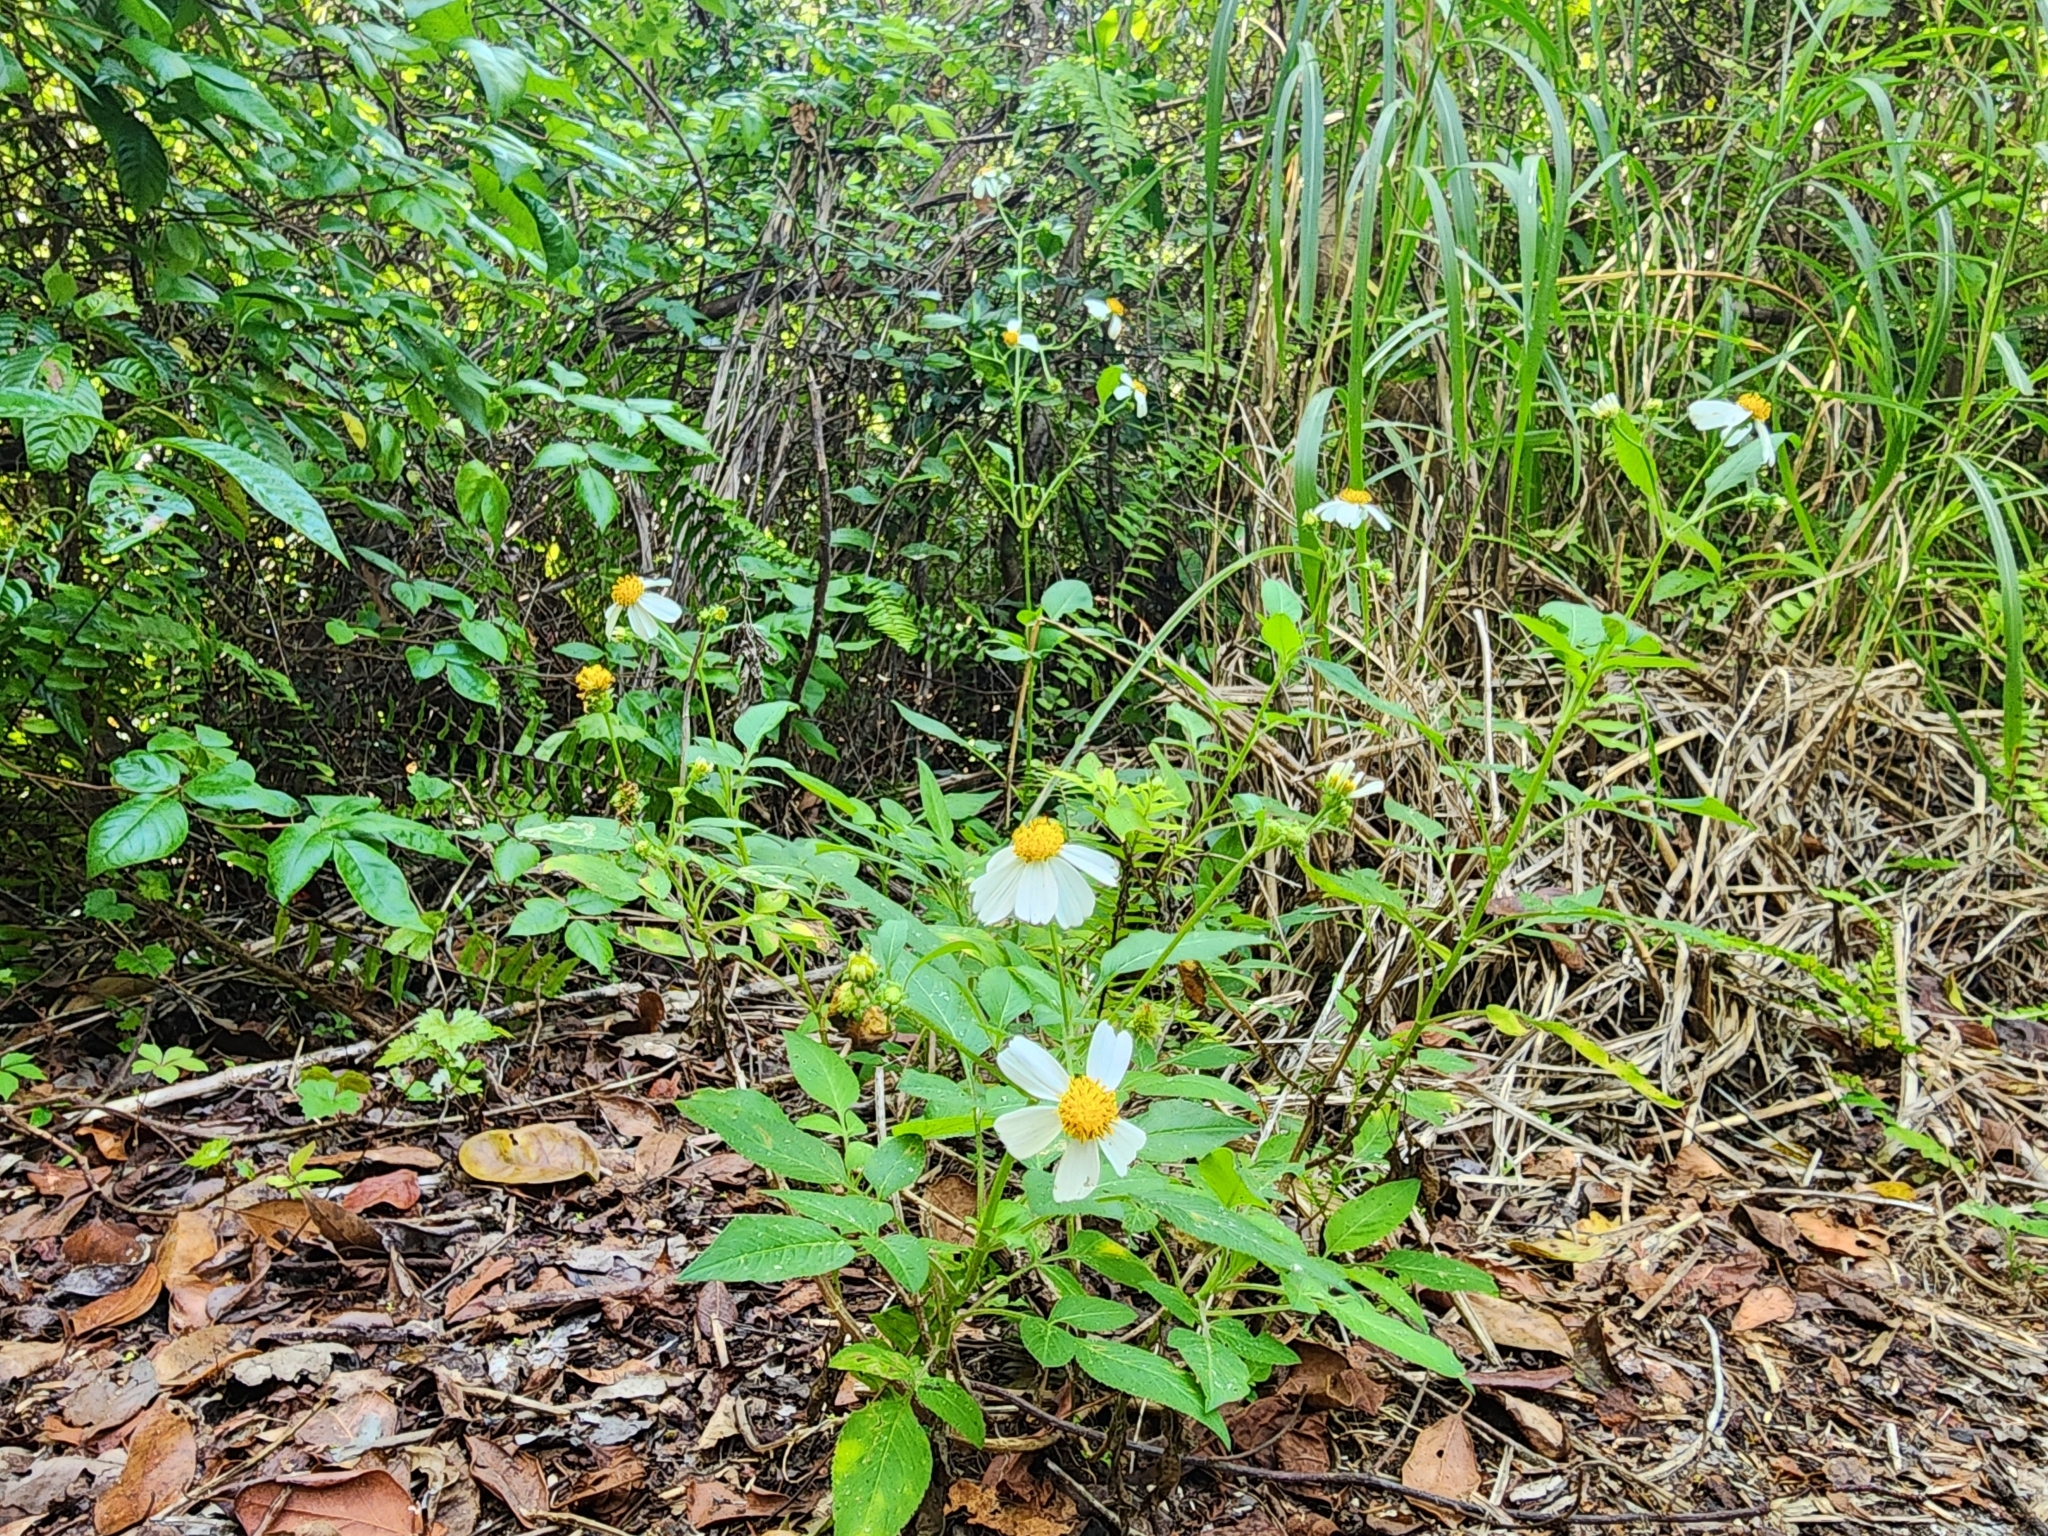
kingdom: Plantae
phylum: Tracheophyta
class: Magnoliopsida
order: Asterales
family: Asteraceae
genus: Bidens
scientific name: Bidens alba
